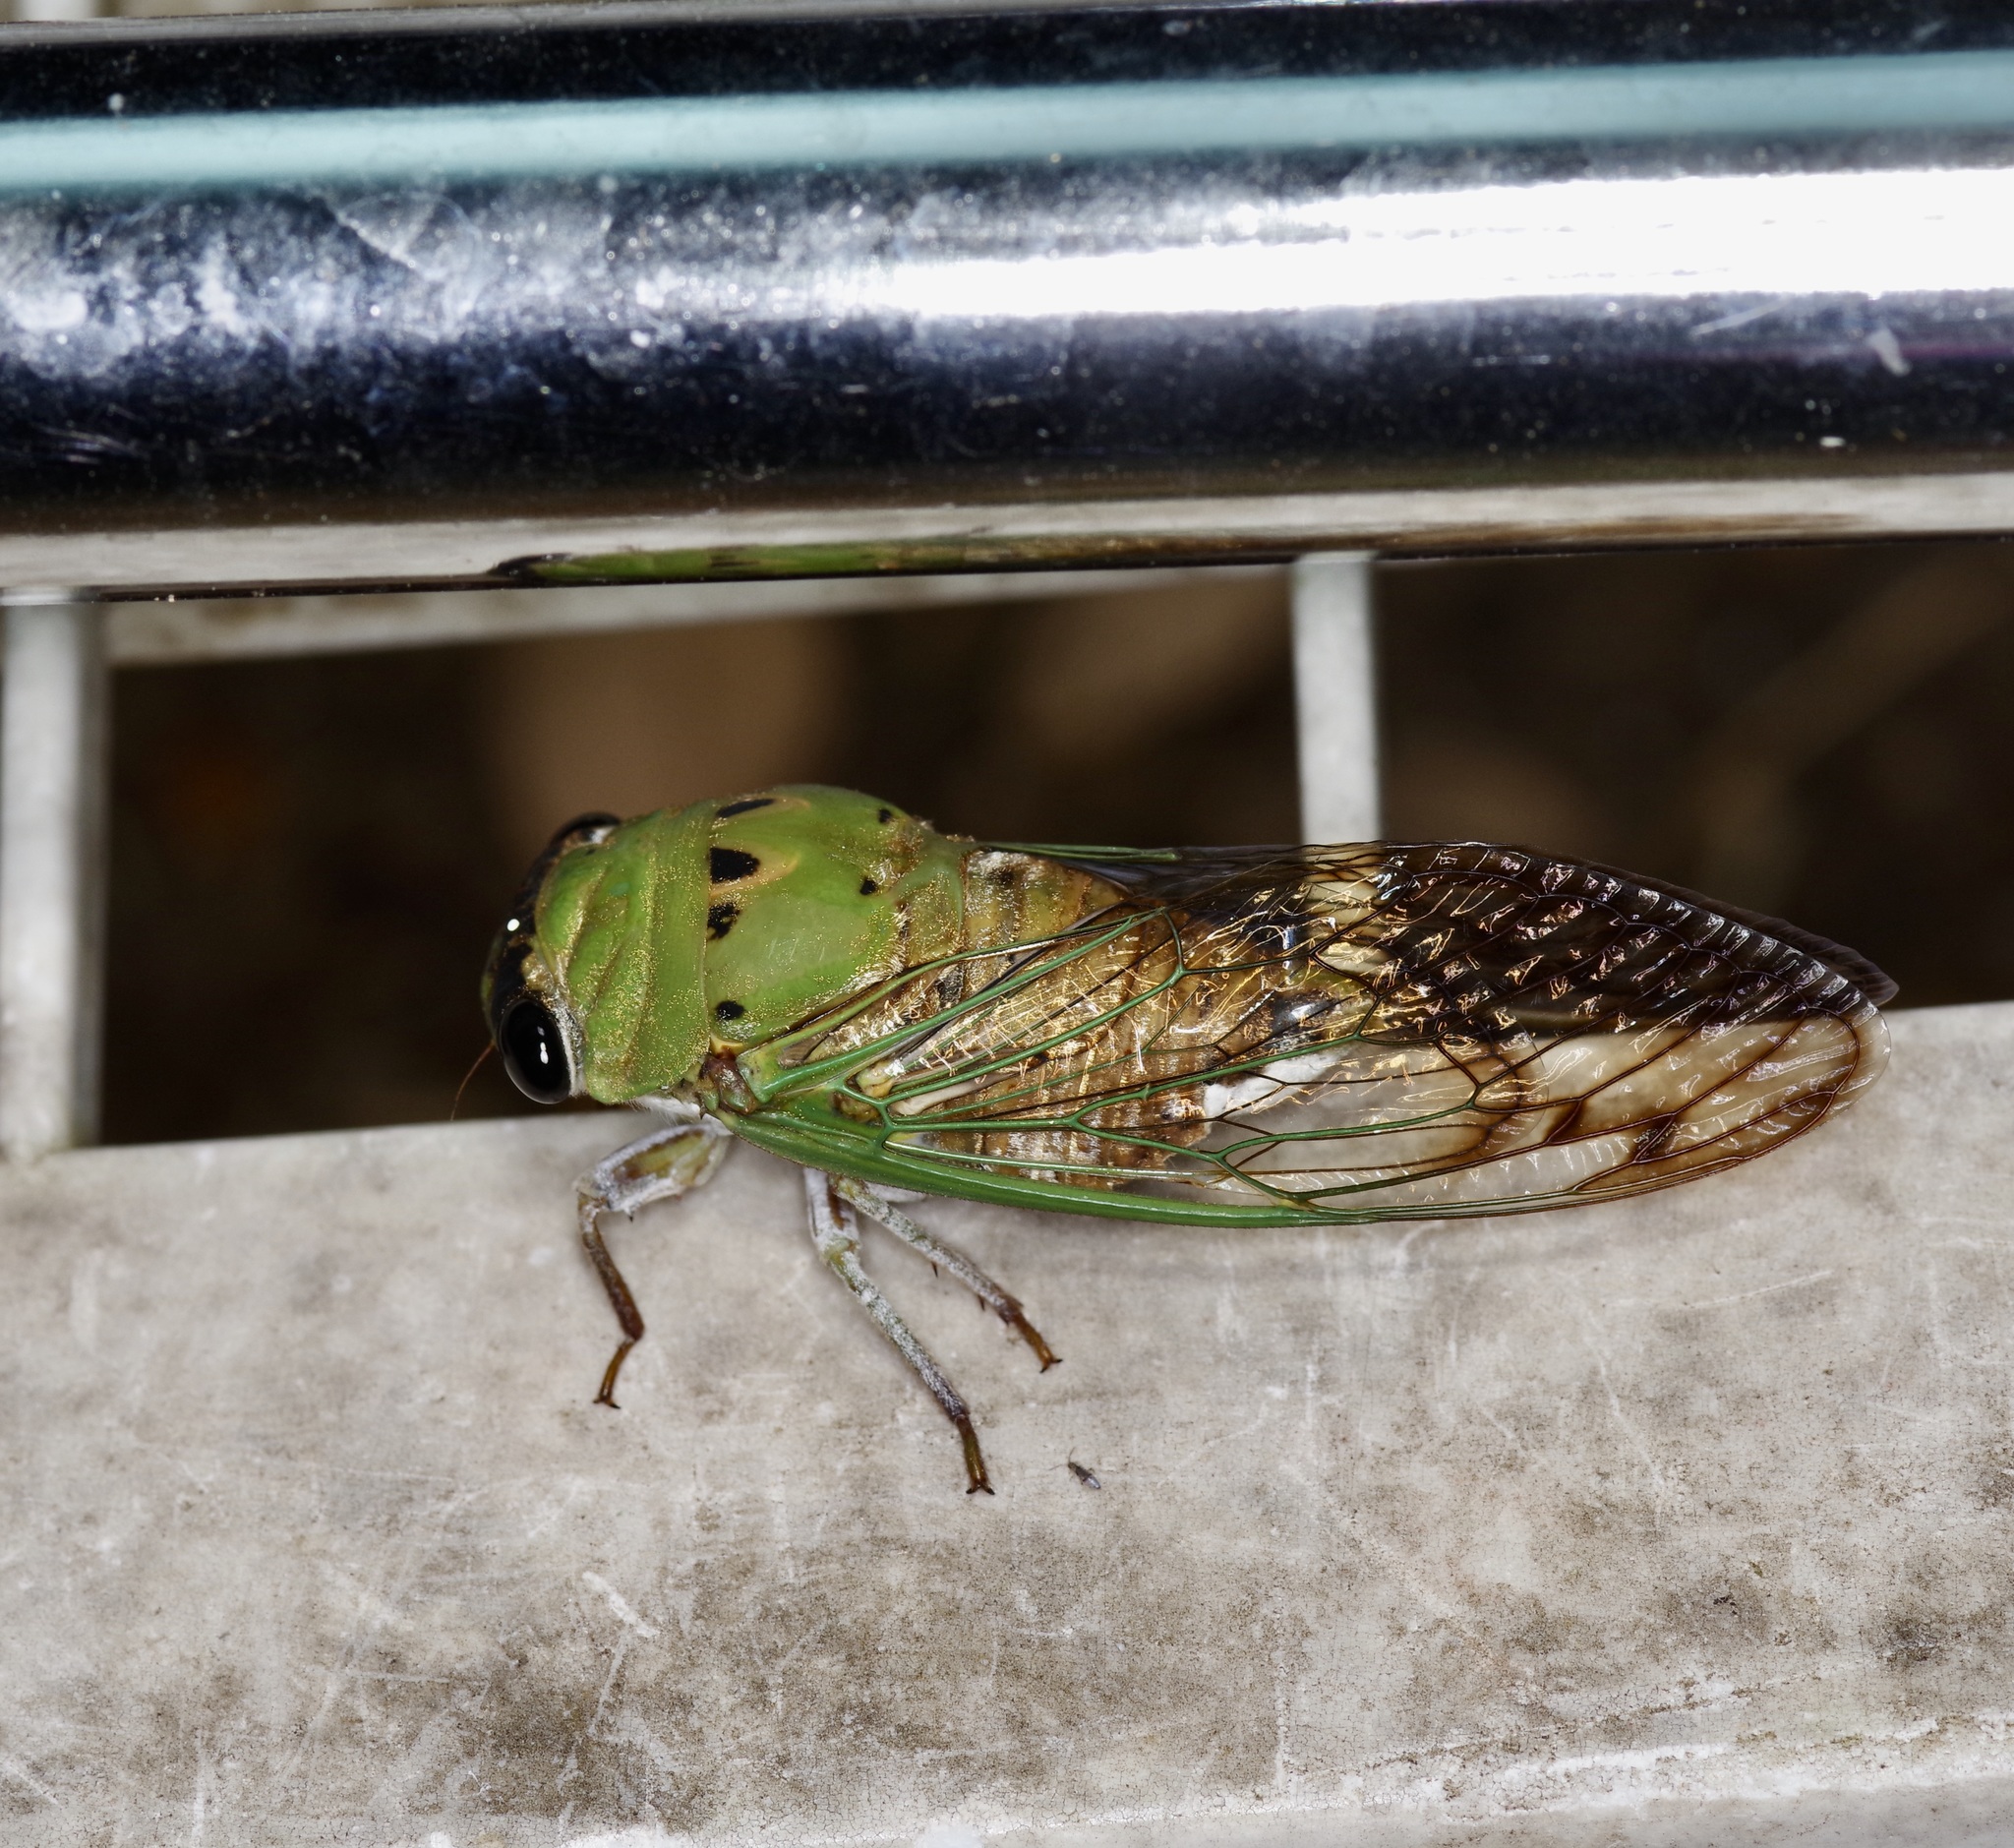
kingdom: Animalia
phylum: Arthropoda
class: Insecta
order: Hemiptera
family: Cicadidae
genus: Neotibicen
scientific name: Neotibicen superbus
